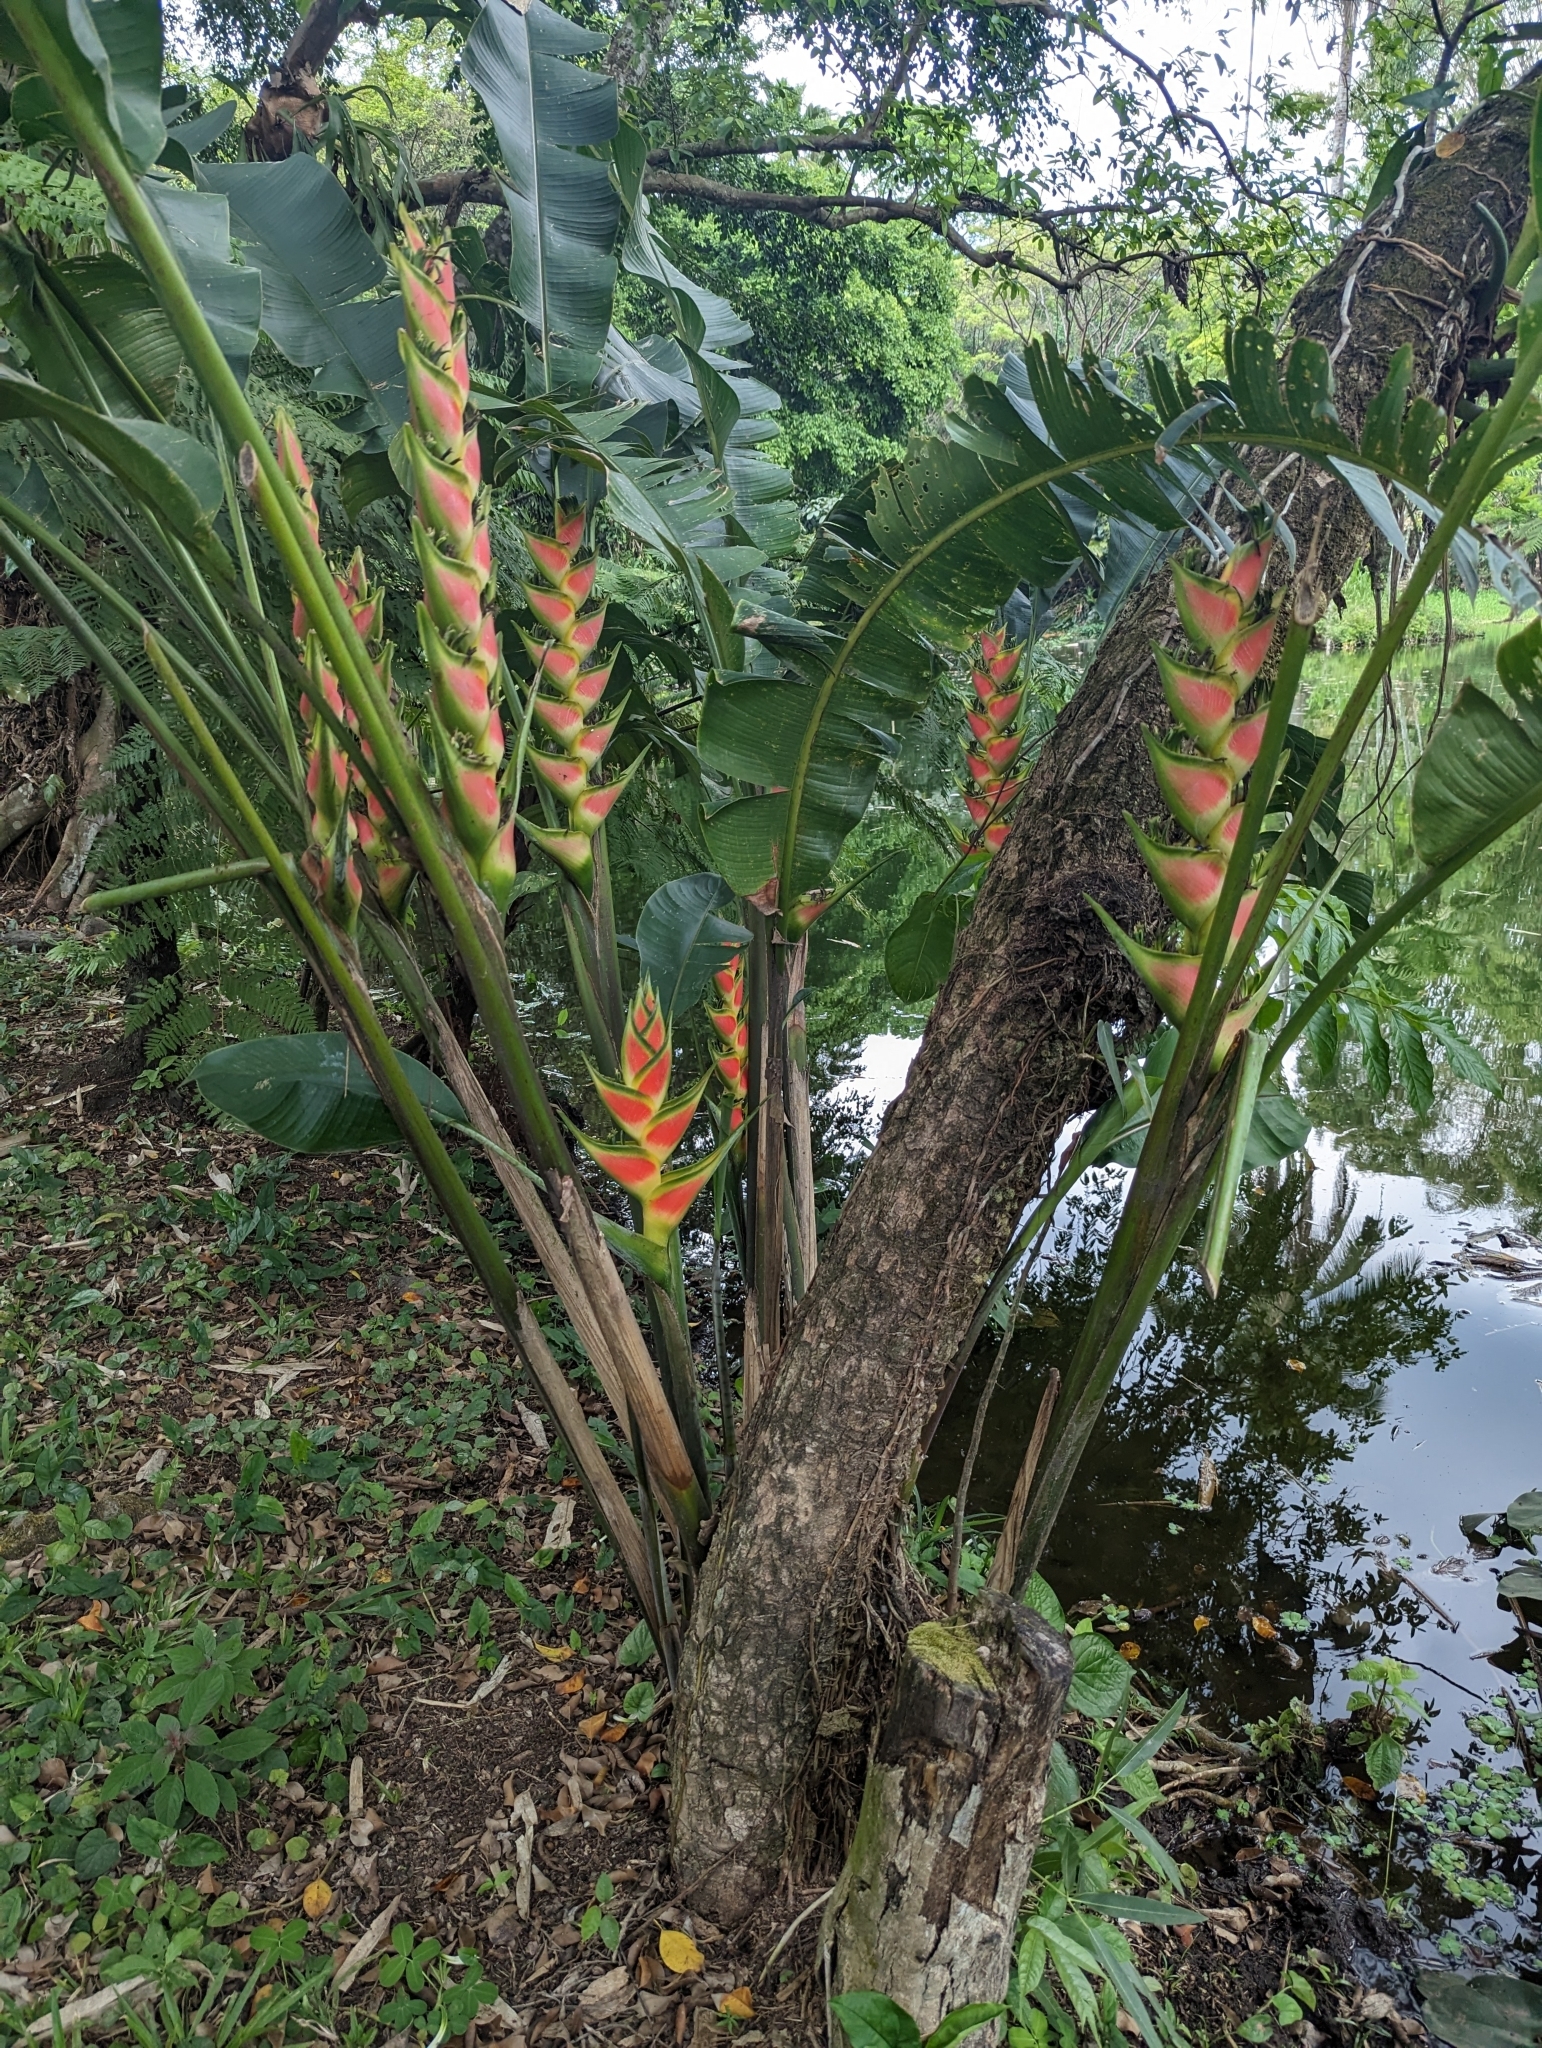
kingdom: Plantae
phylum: Tracheophyta
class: Liliopsida
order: Zingiberales
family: Heliconiaceae
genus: Heliconia
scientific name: Heliconia wagneriana
